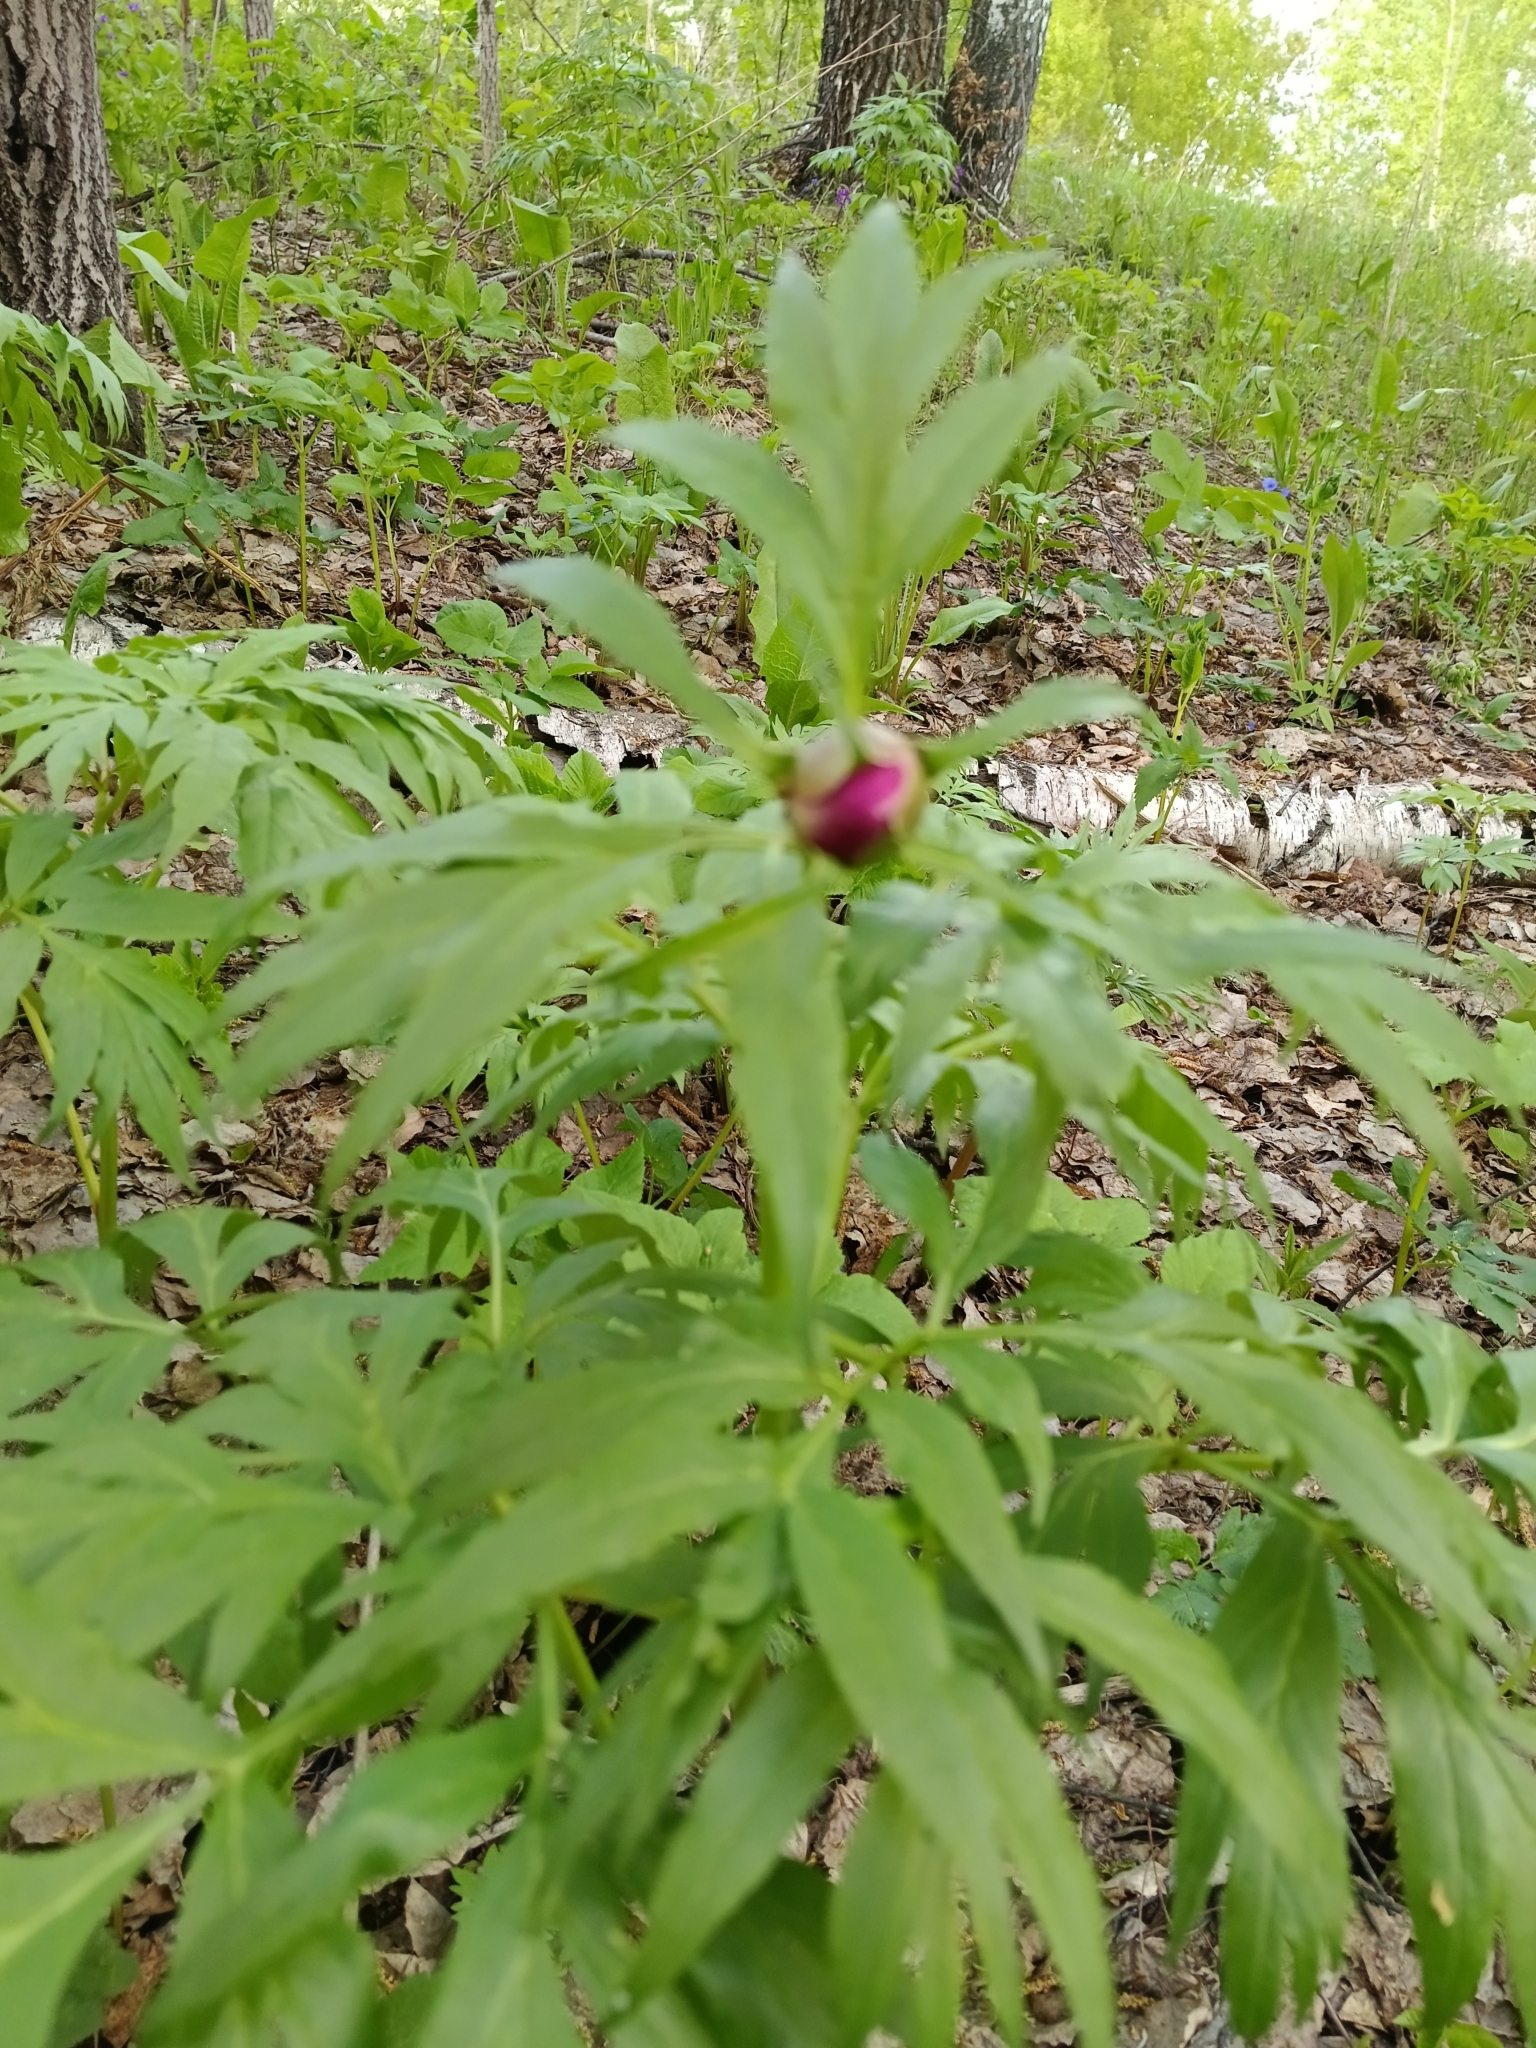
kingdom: Plantae
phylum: Tracheophyta
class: Magnoliopsida
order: Saxifragales
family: Paeoniaceae
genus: Paeonia
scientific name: Paeonia anomala
